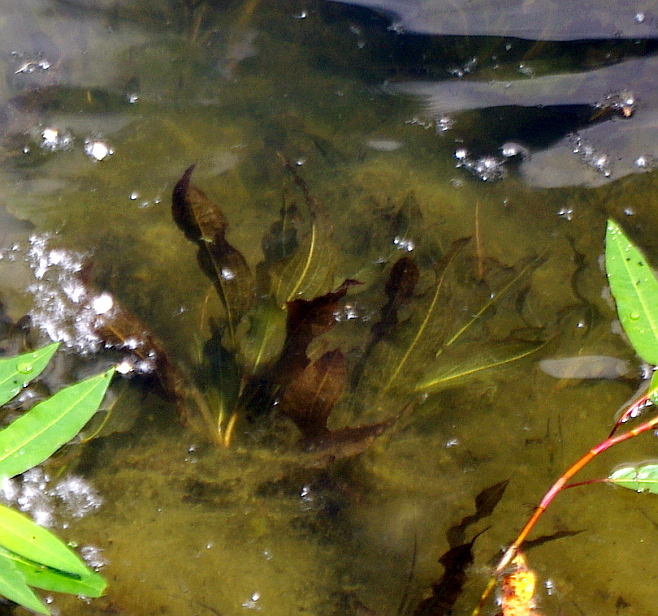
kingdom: Plantae
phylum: Tracheophyta
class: Liliopsida
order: Alismatales
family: Potamogetonaceae
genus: Potamogeton
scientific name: Potamogeton lucens
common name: Shining pondweed
